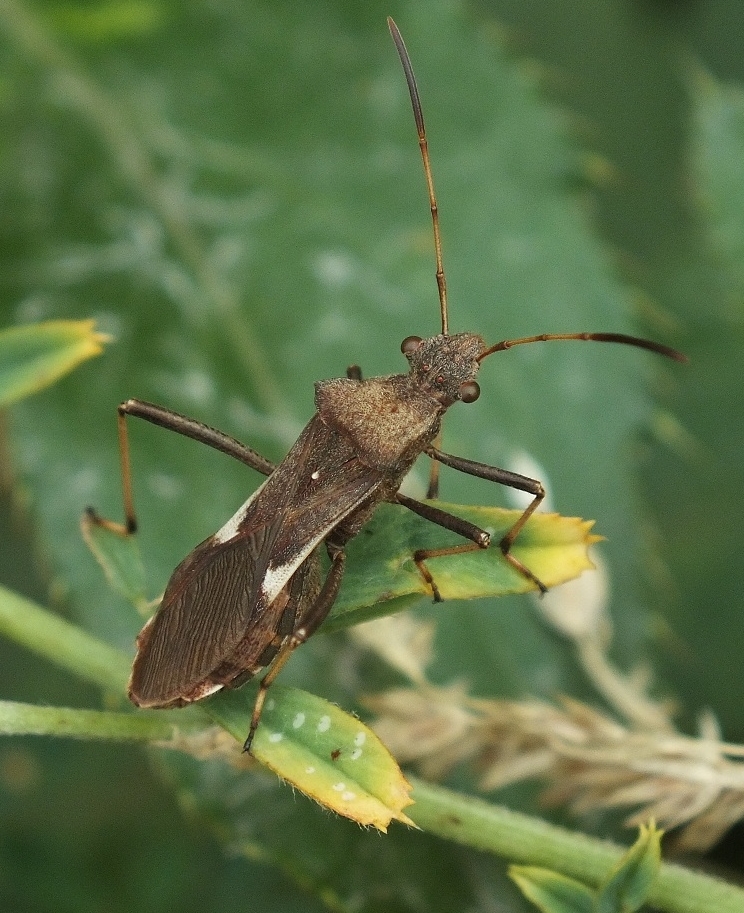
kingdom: Animalia
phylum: Arthropoda
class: Insecta
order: Hemiptera
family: Alydidae
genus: Megalotomus
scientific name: Megalotomus ornaticeps
